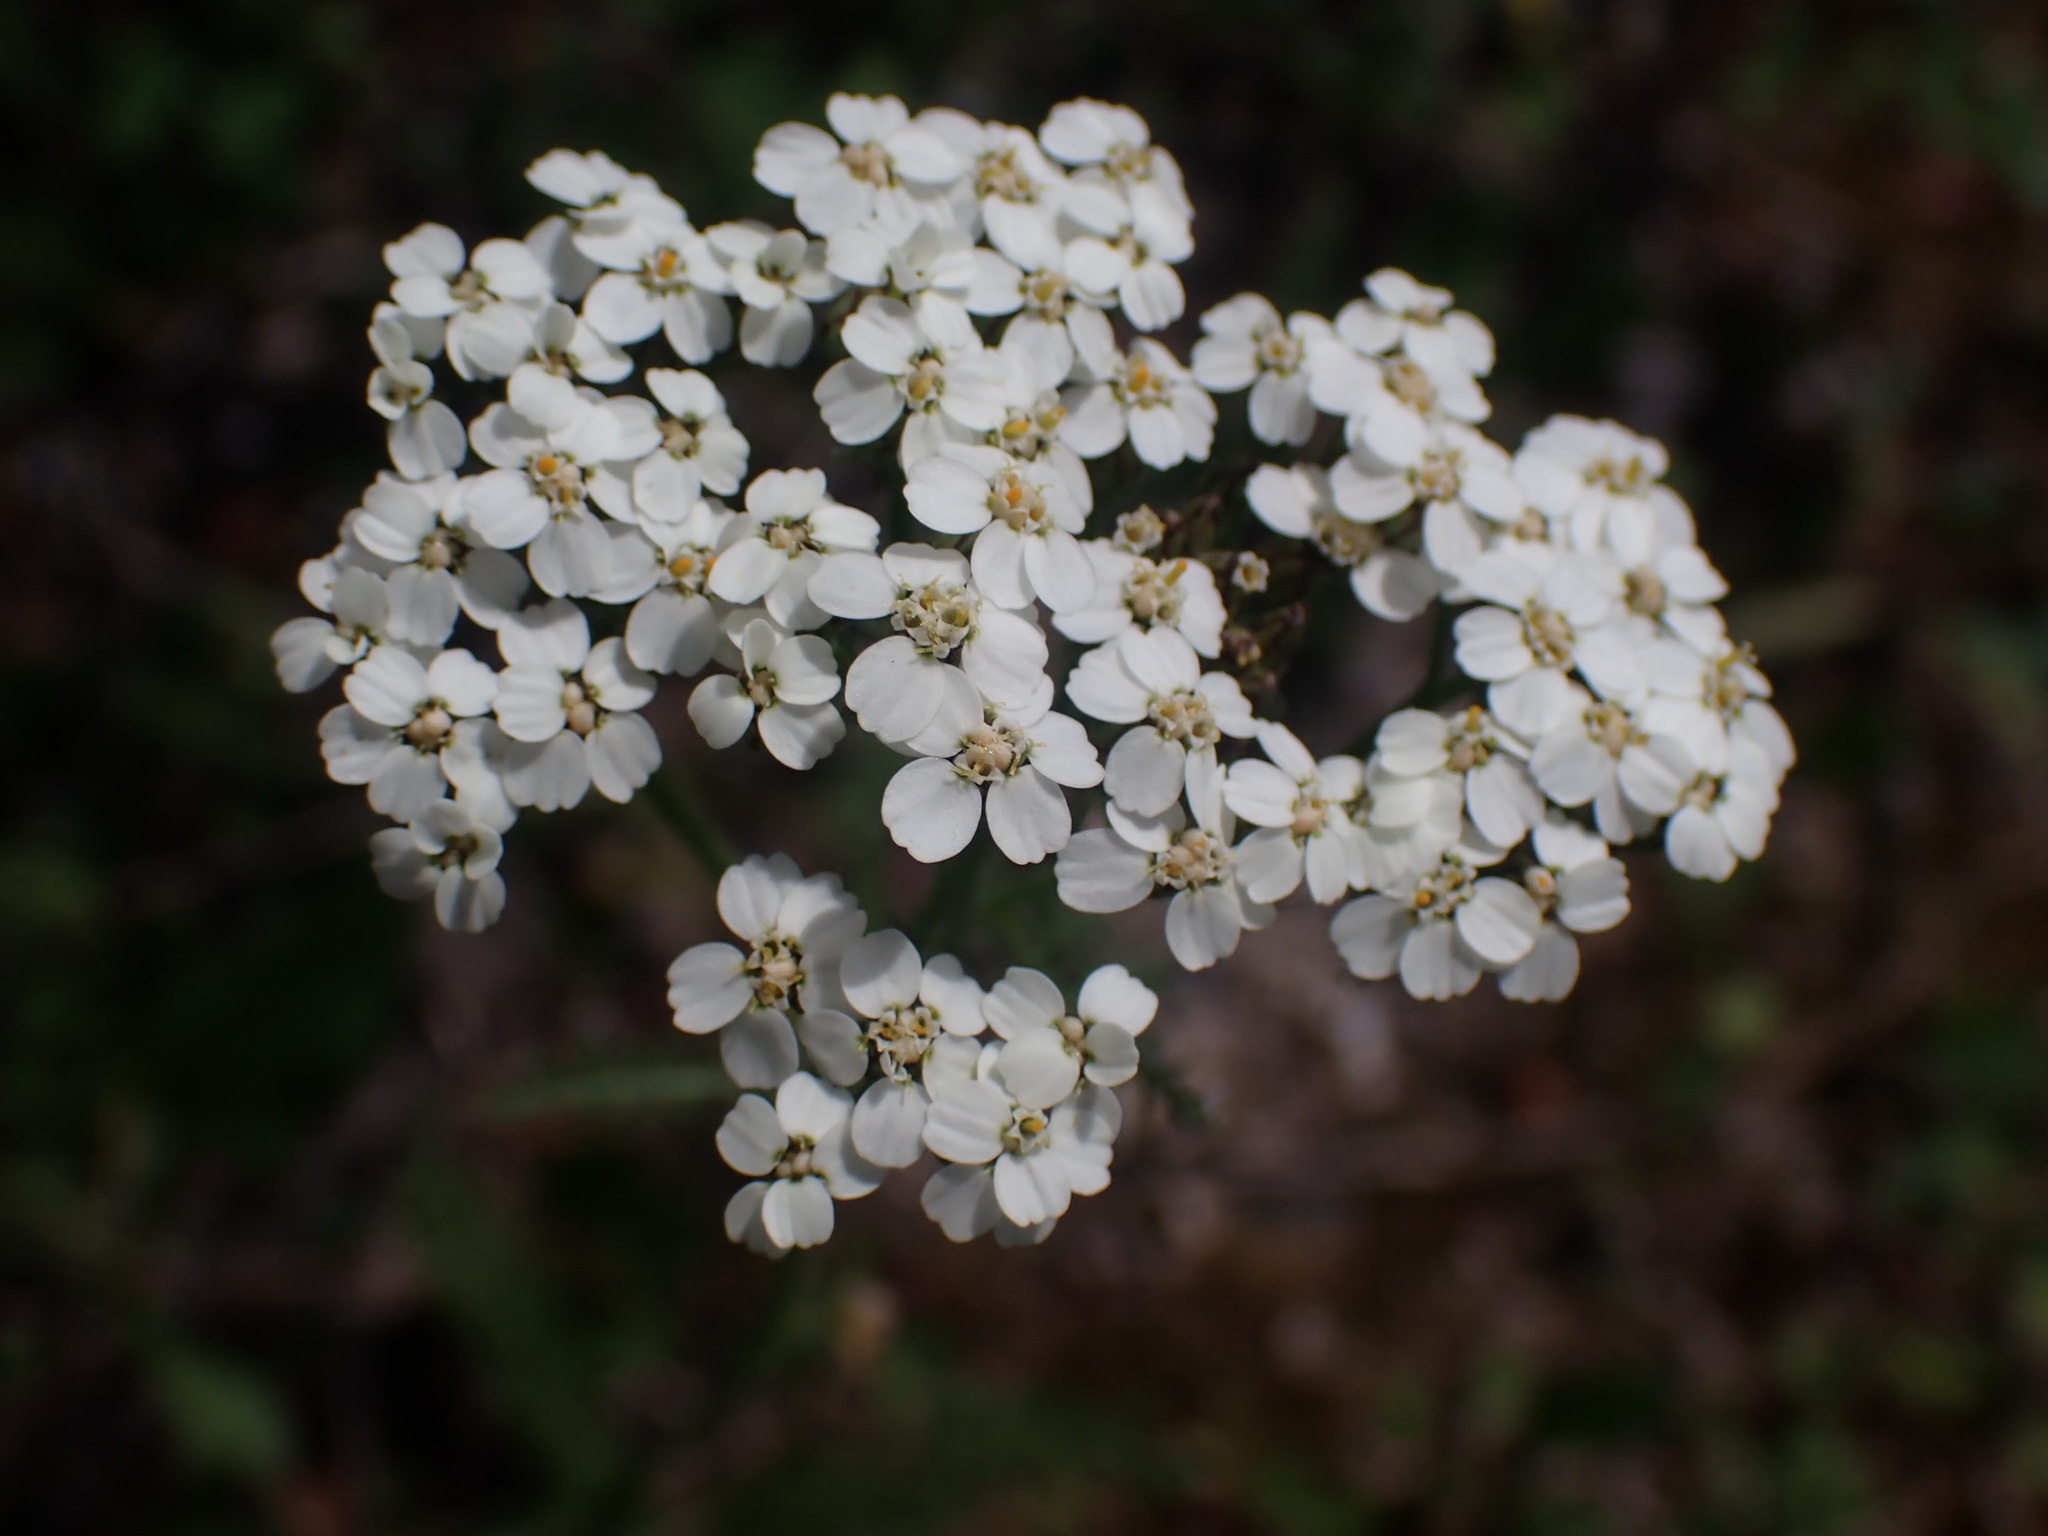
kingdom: Plantae
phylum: Tracheophyta
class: Magnoliopsida
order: Asterales
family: Asteraceae
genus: Achillea
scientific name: Achillea millefolium
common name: Yarrow
